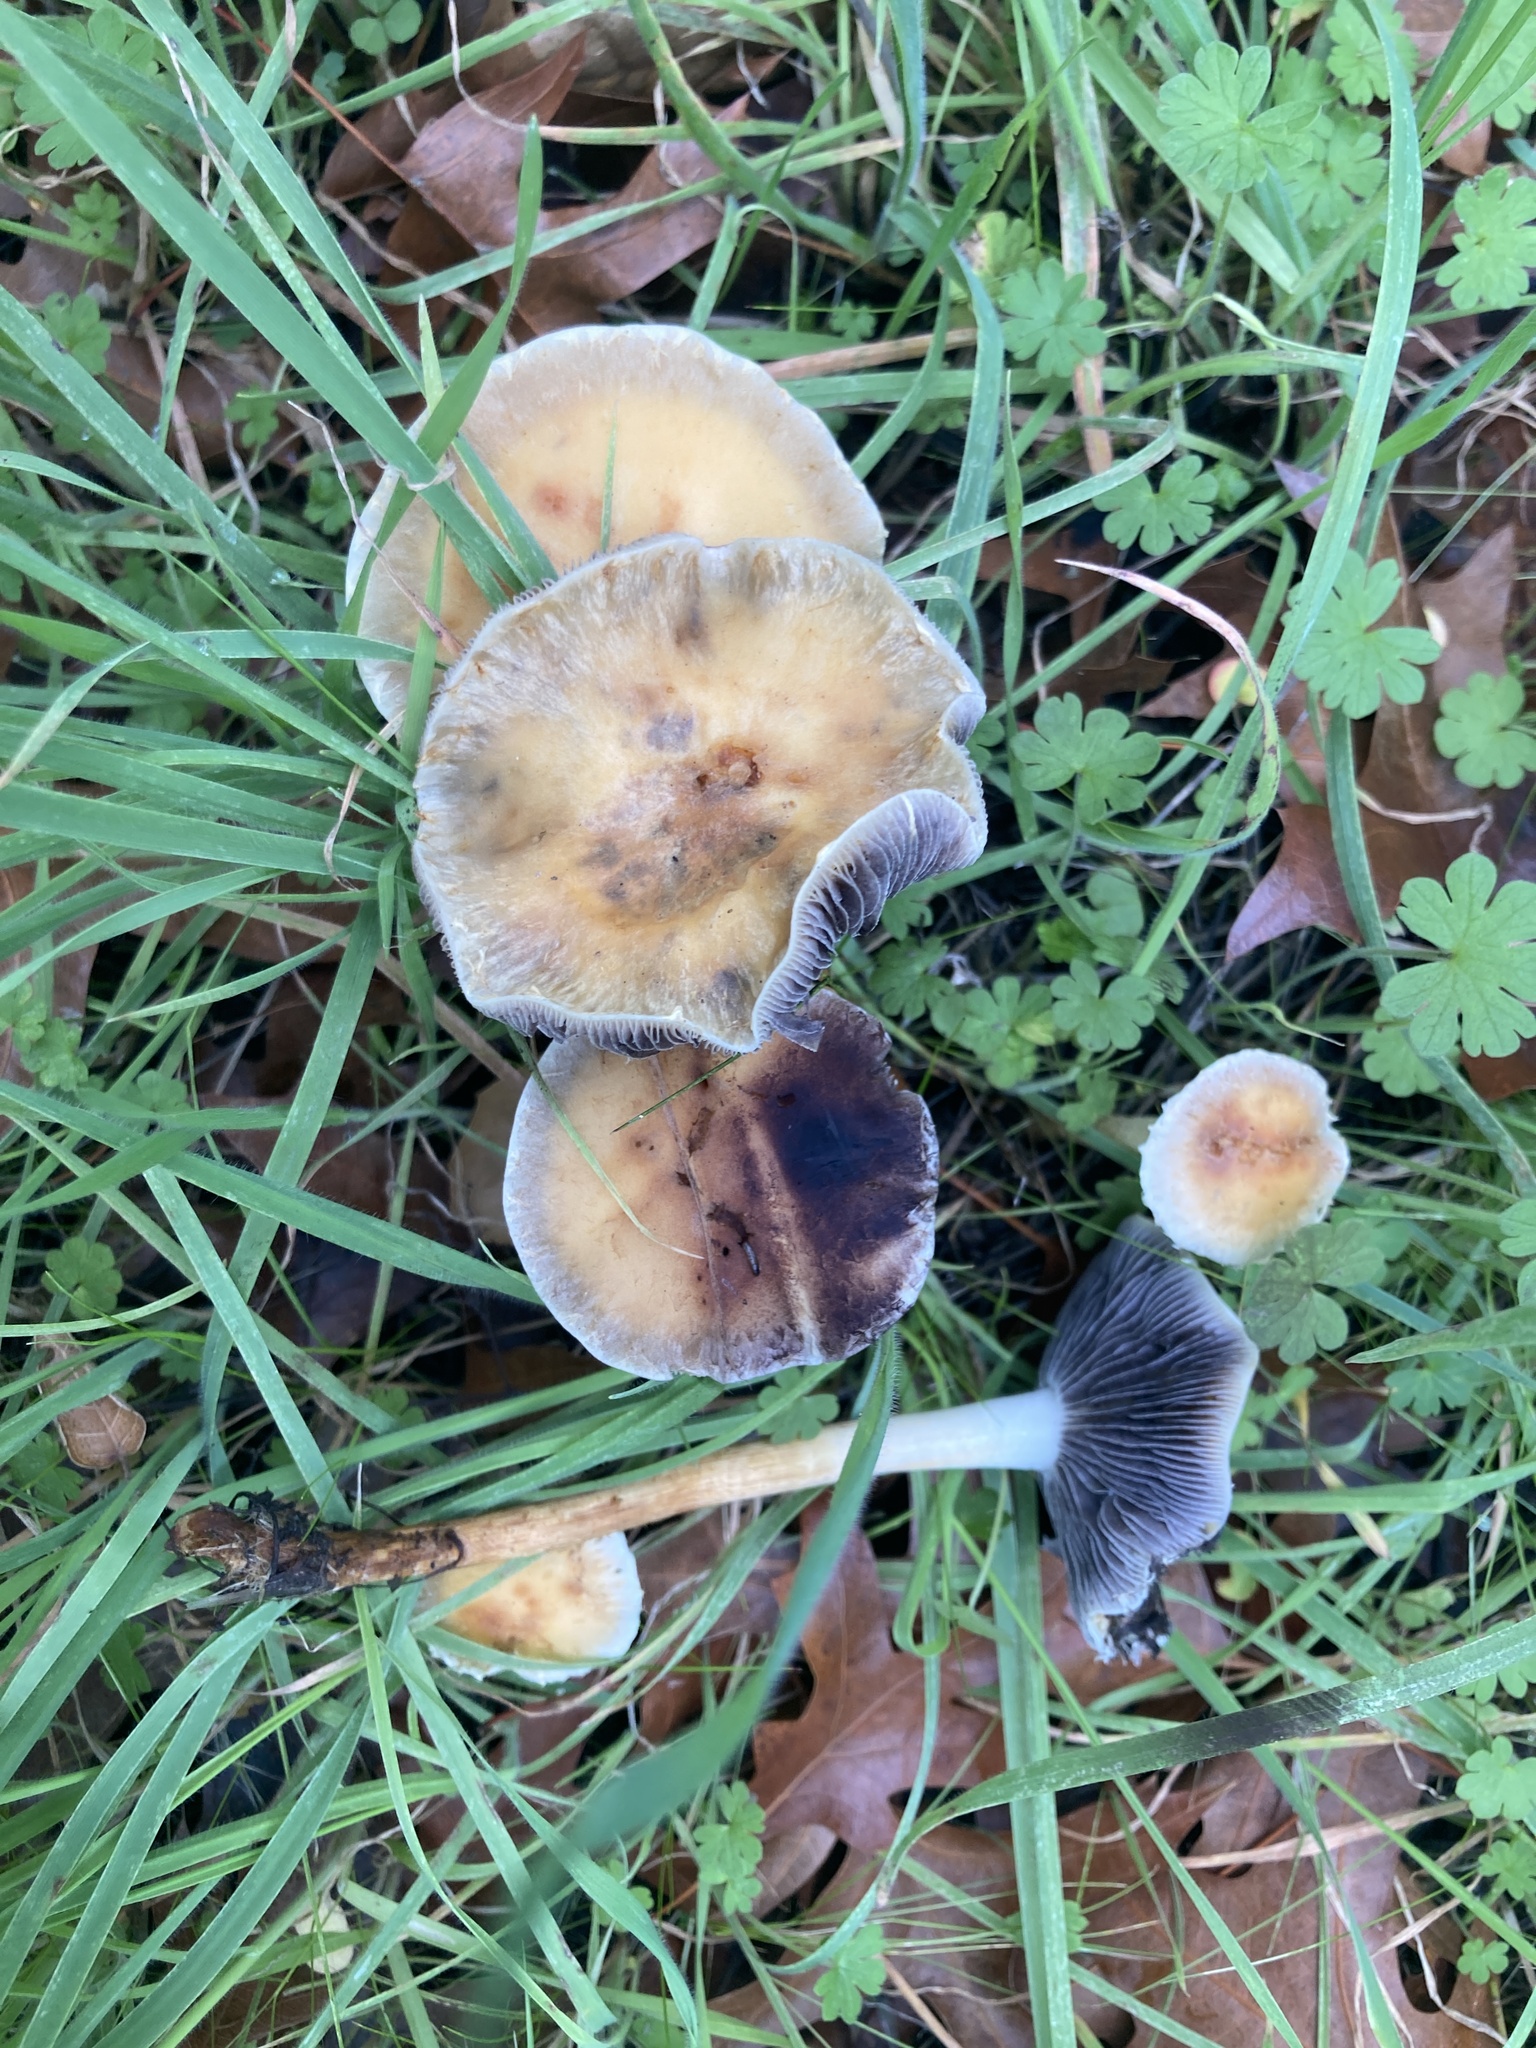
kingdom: Fungi
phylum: Basidiomycota
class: Agaricomycetes
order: Agaricales
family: Strophariaceae
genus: Leratiomyces
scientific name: Leratiomyces percevalii
